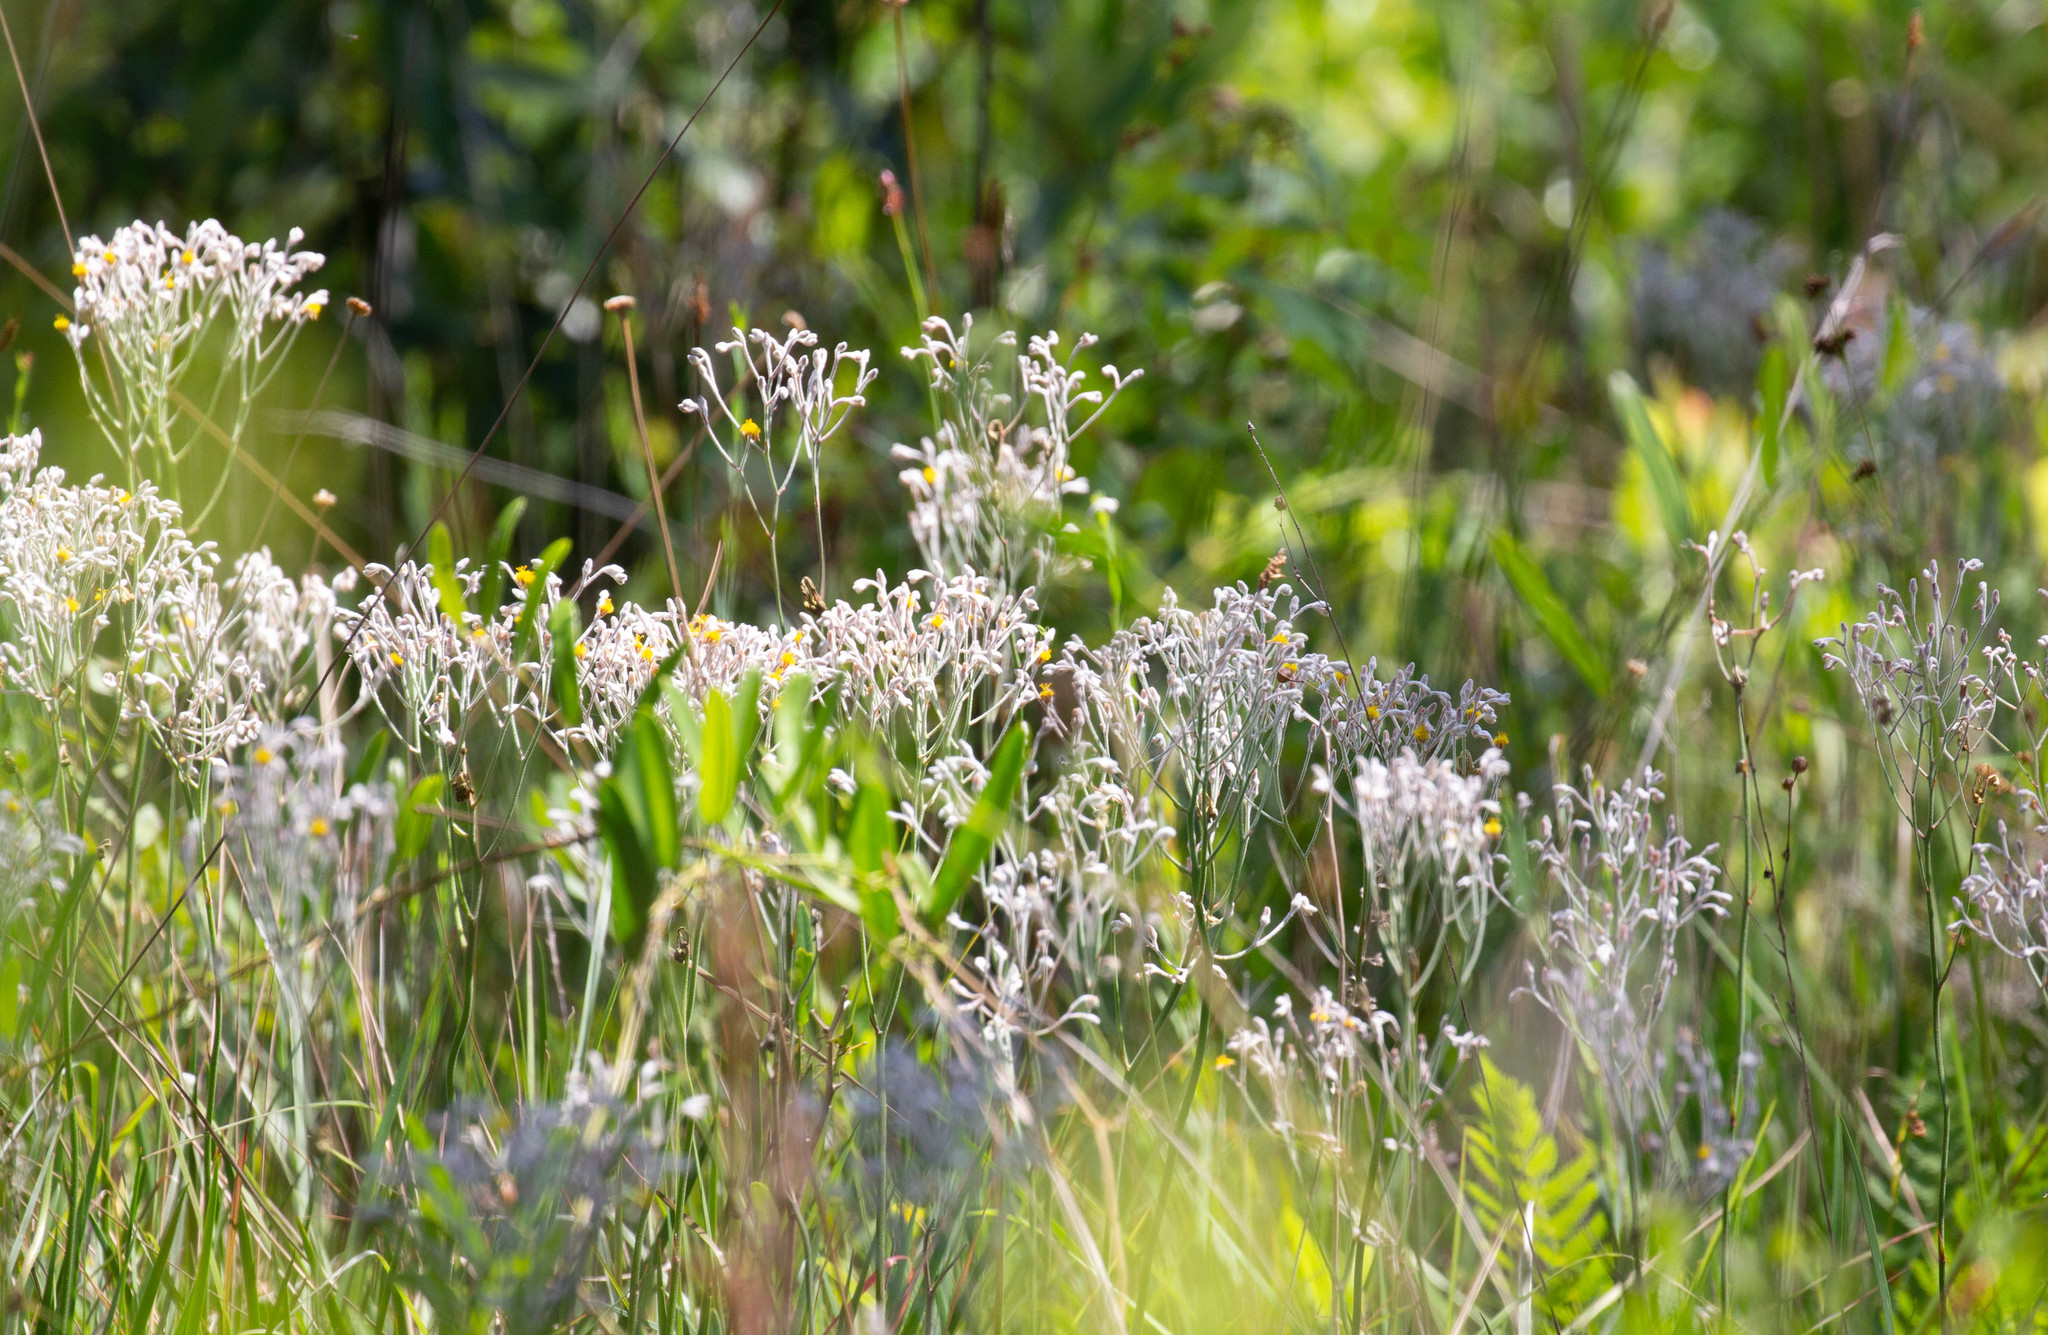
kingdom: Plantae
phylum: Tracheophyta
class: Liliopsida
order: Dioscoreales
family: Nartheciaceae
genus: Lophiola
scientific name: Lophiola aurea
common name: Golden-crest
